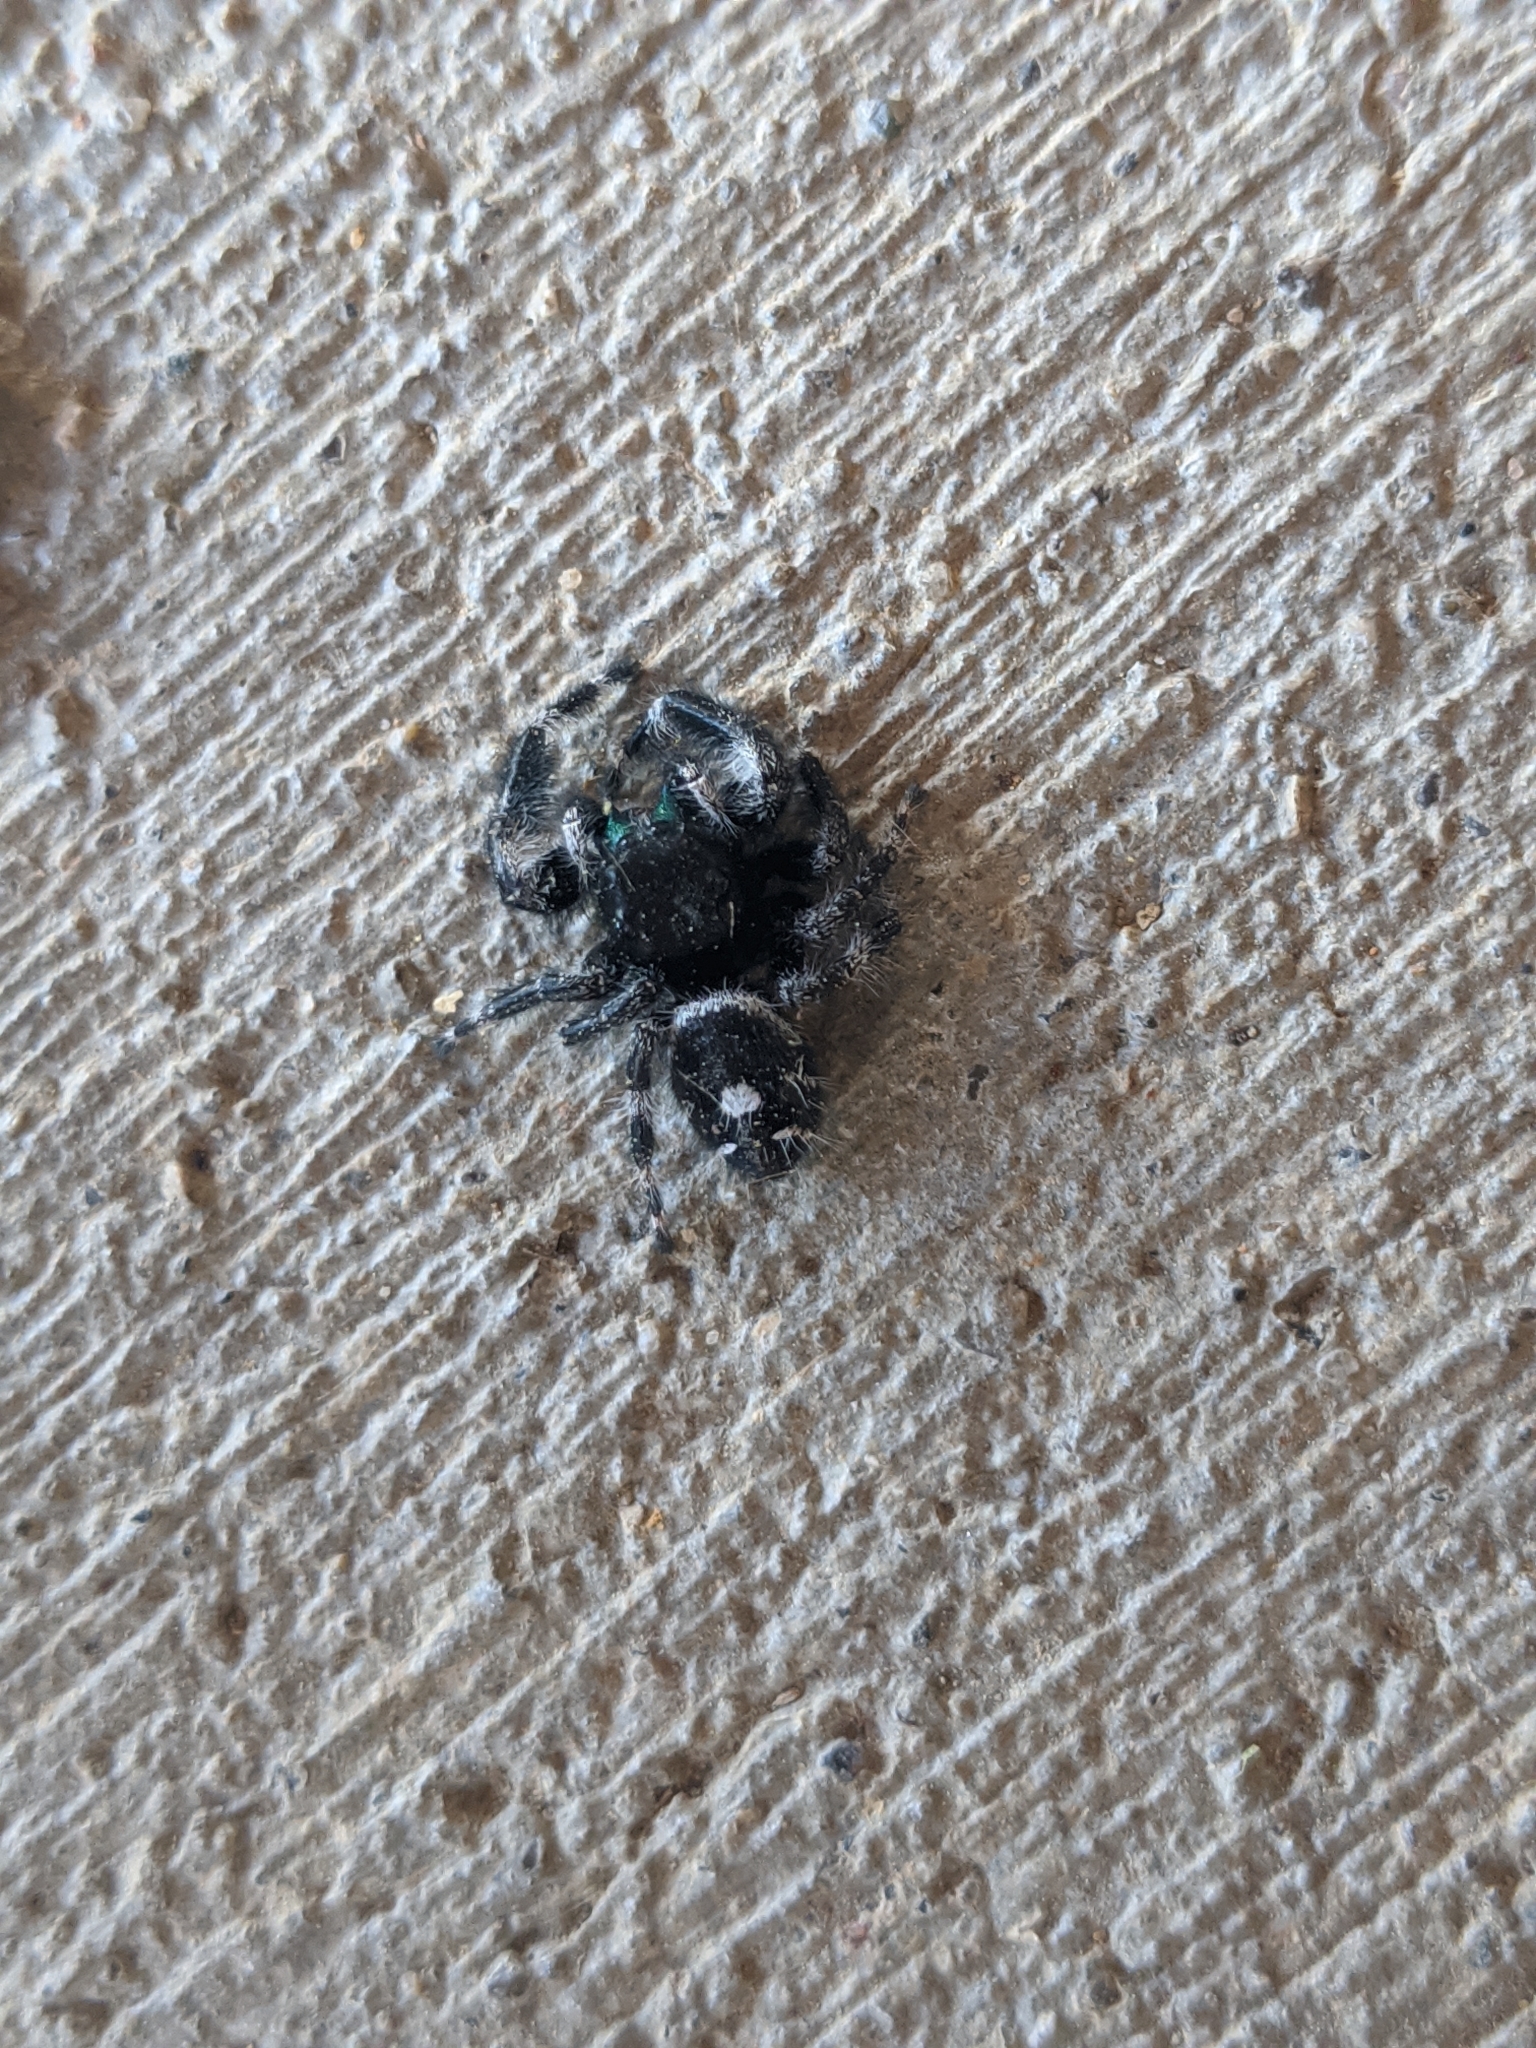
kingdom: Animalia
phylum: Arthropoda
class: Arachnida
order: Araneae
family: Salticidae
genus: Phidippus
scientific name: Phidippus audax
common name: Bold jumper
